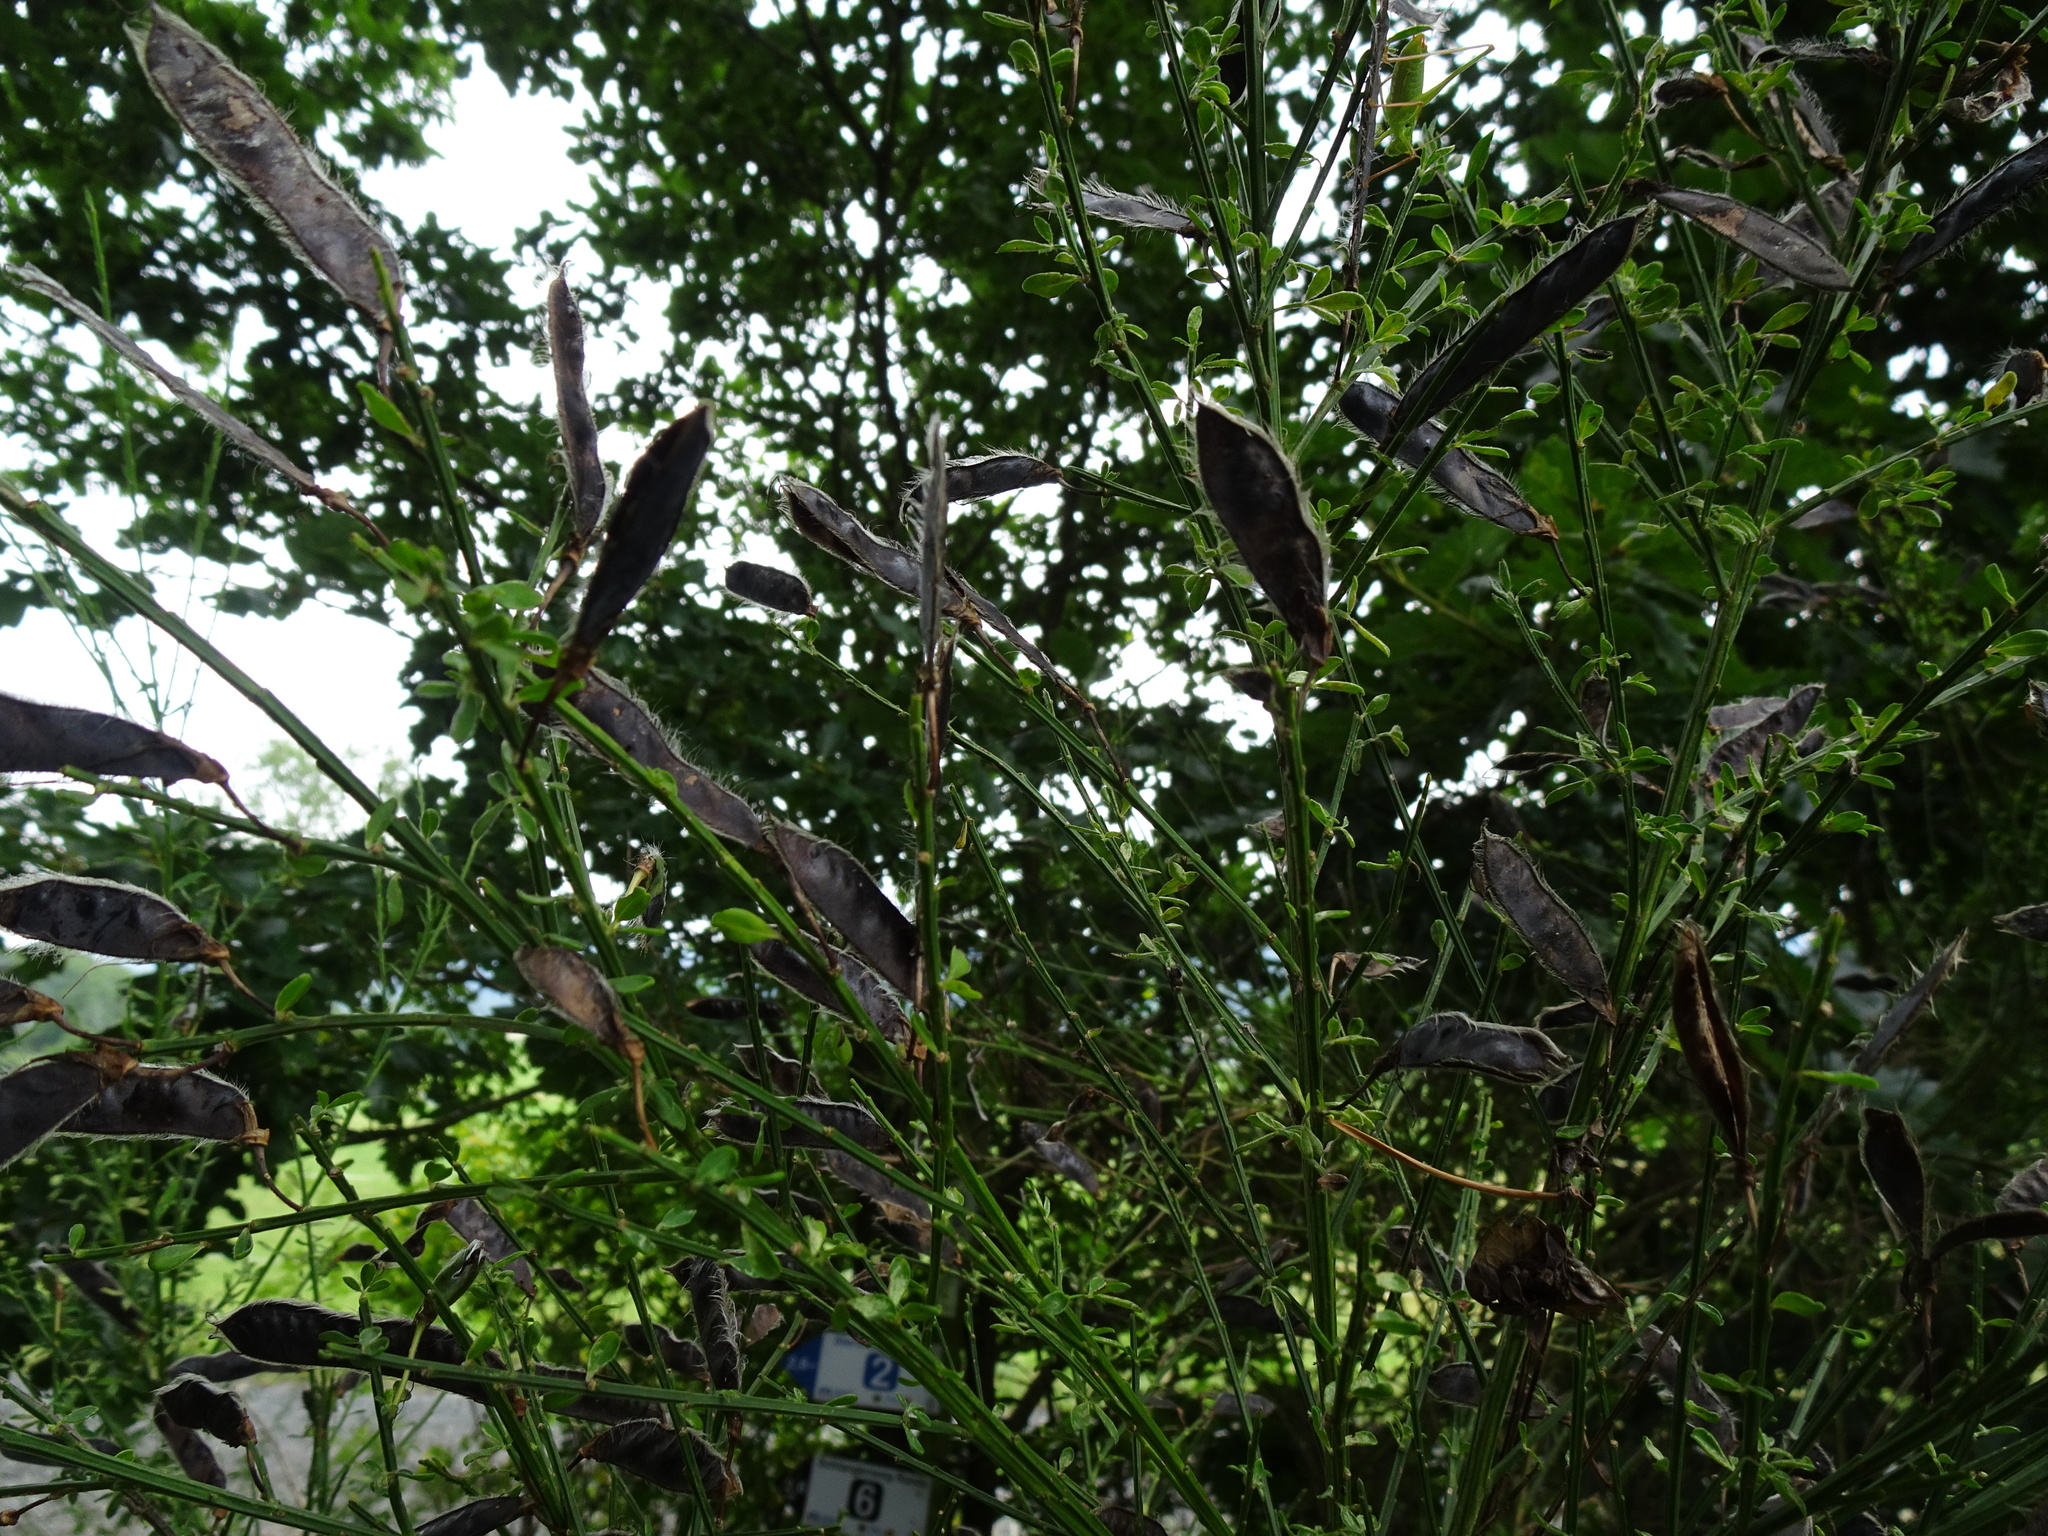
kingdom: Plantae
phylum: Tracheophyta
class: Magnoliopsida
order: Fabales
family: Fabaceae
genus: Cytisus
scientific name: Cytisus scoparius
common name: Scotch broom
